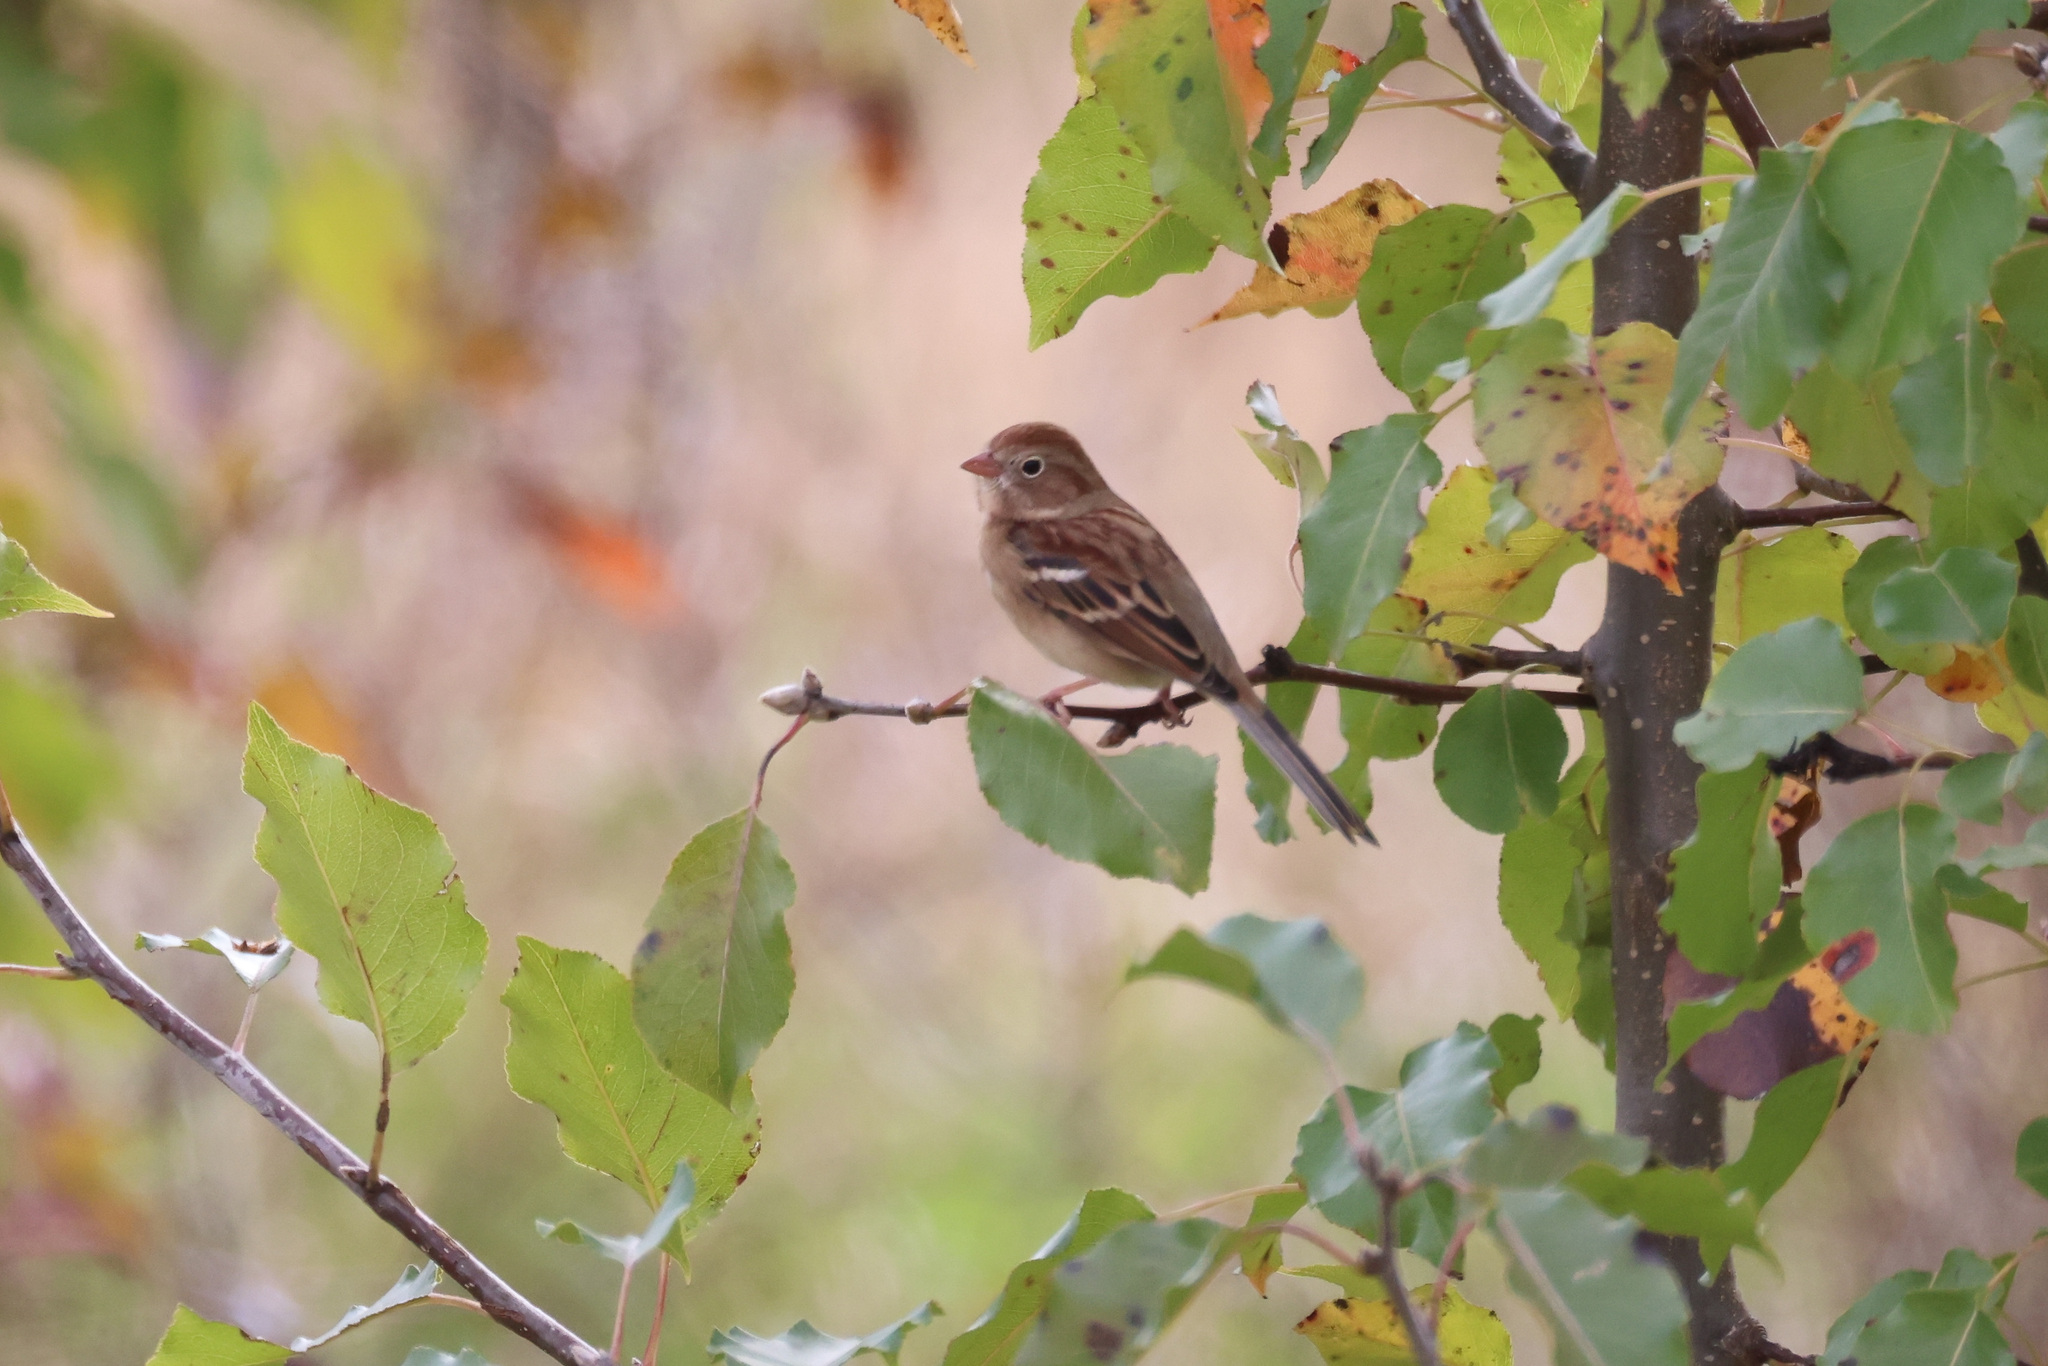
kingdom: Plantae
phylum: Tracheophyta
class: Magnoliopsida
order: Rosales
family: Rosaceae
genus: Pyrus
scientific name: Pyrus calleryana
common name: Callery pear
